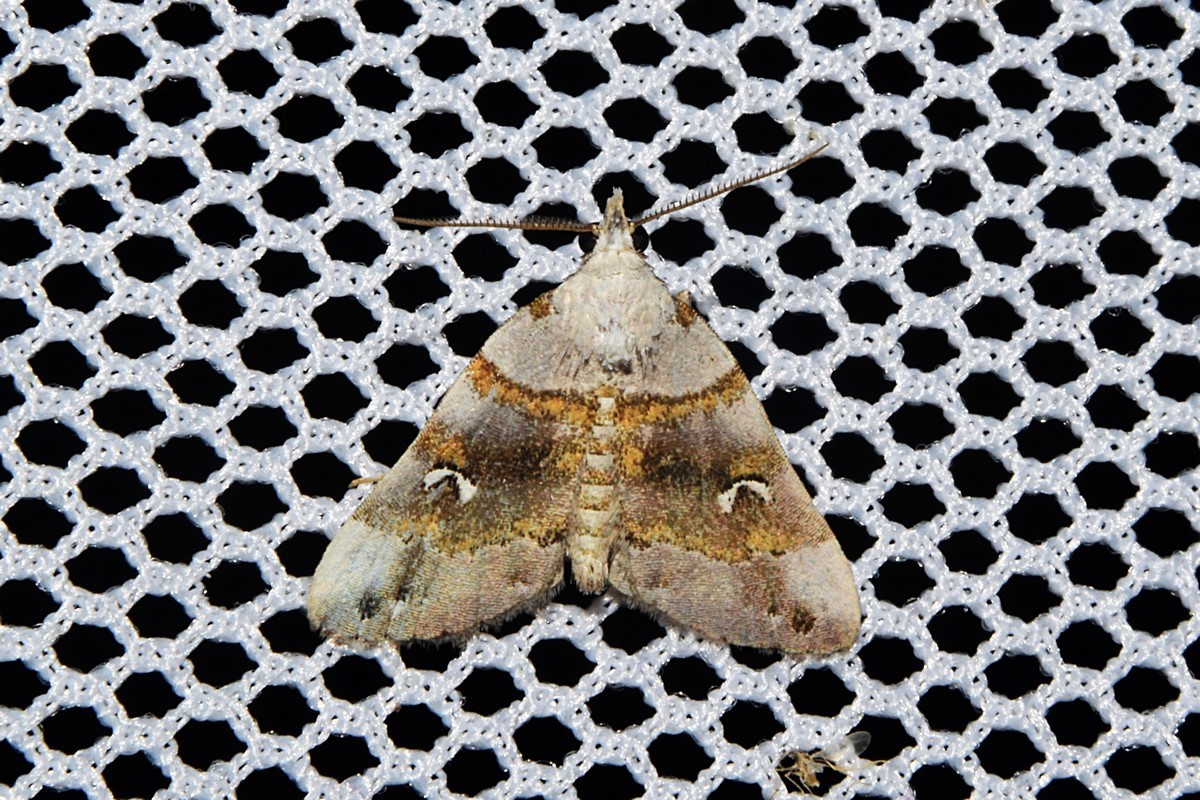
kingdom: Animalia
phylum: Arthropoda
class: Insecta
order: Lepidoptera
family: Erebidae
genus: Sinarella
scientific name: Sinarella
